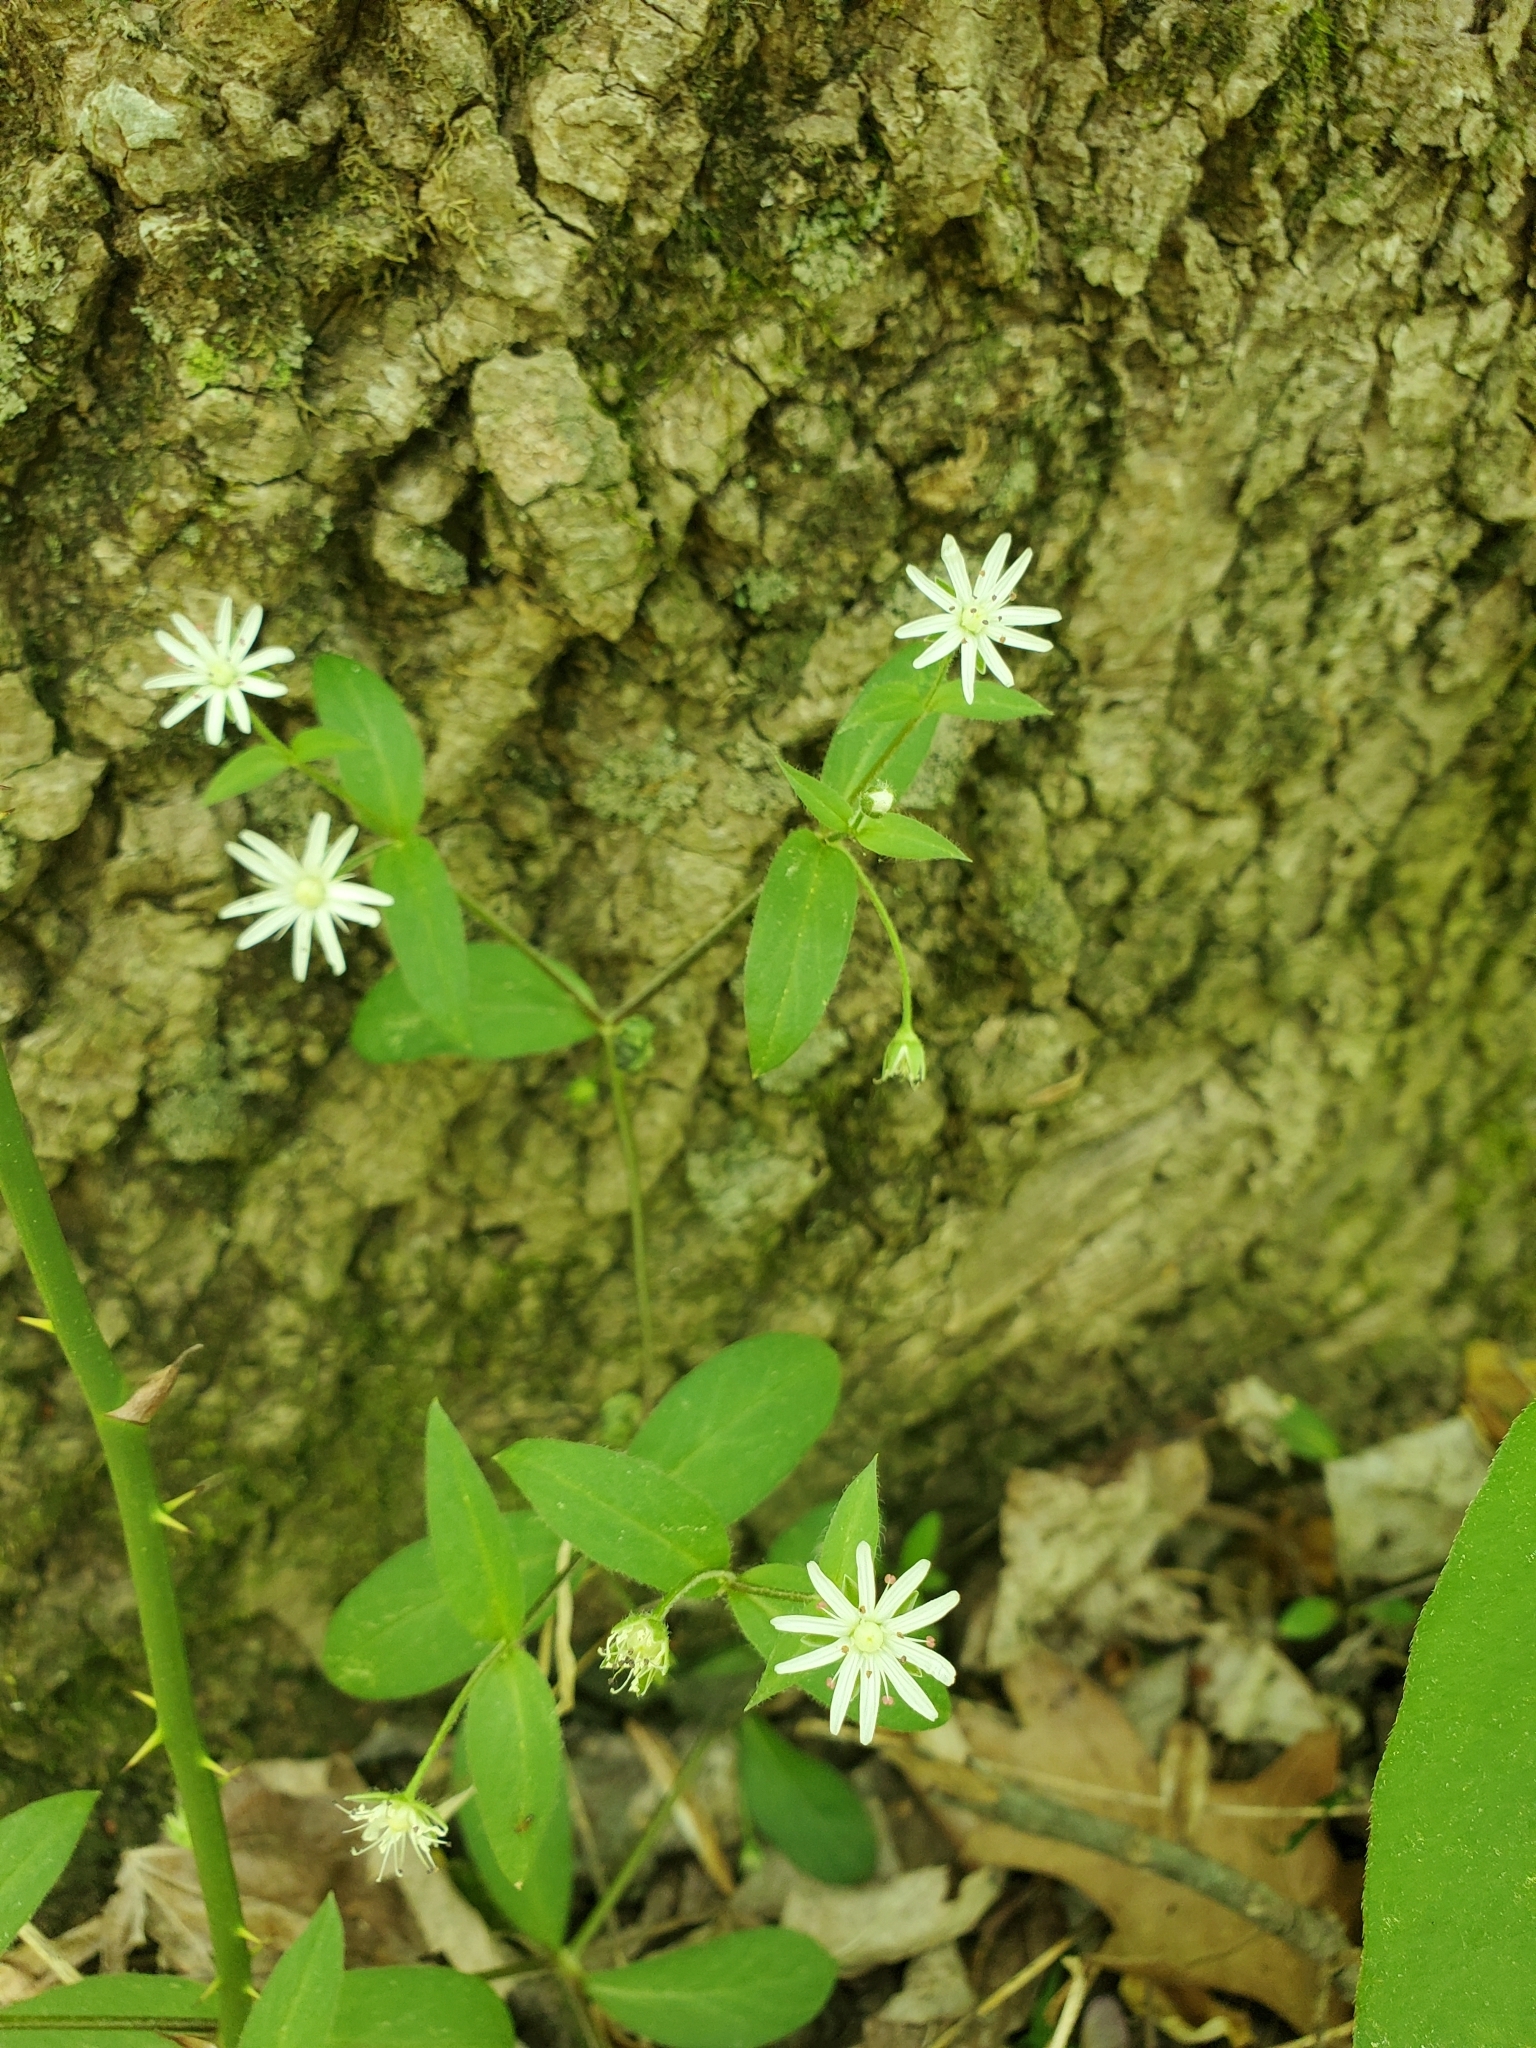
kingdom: Plantae
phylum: Tracheophyta
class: Magnoliopsida
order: Caryophyllales
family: Caryophyllaceae
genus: Stellaria
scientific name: Stellaria pubera
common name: Star chickweed
